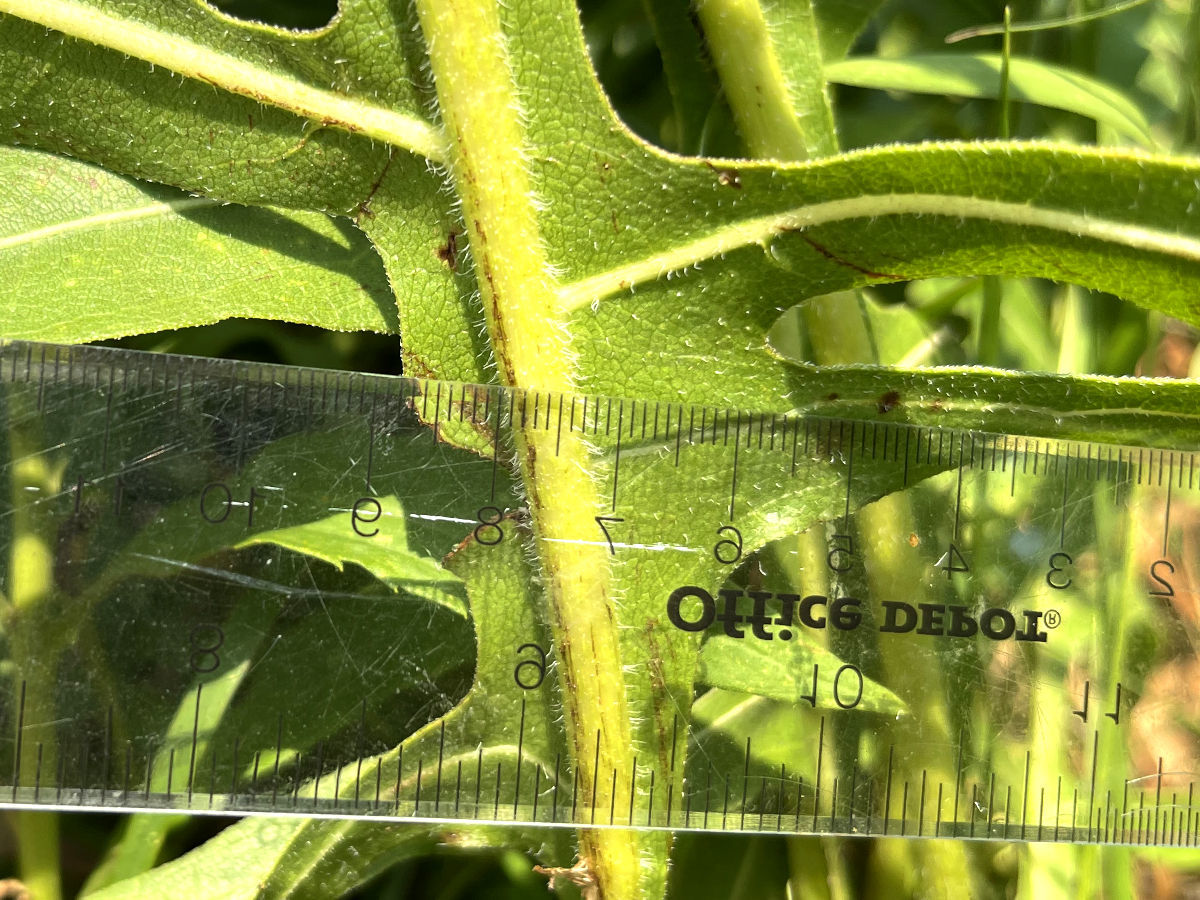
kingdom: Plantae
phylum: Tracheophyta
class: Magnoliopsida
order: Asterales
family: Asteraceae
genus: Silphium
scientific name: Silphium laciniatum
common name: Polarplant
